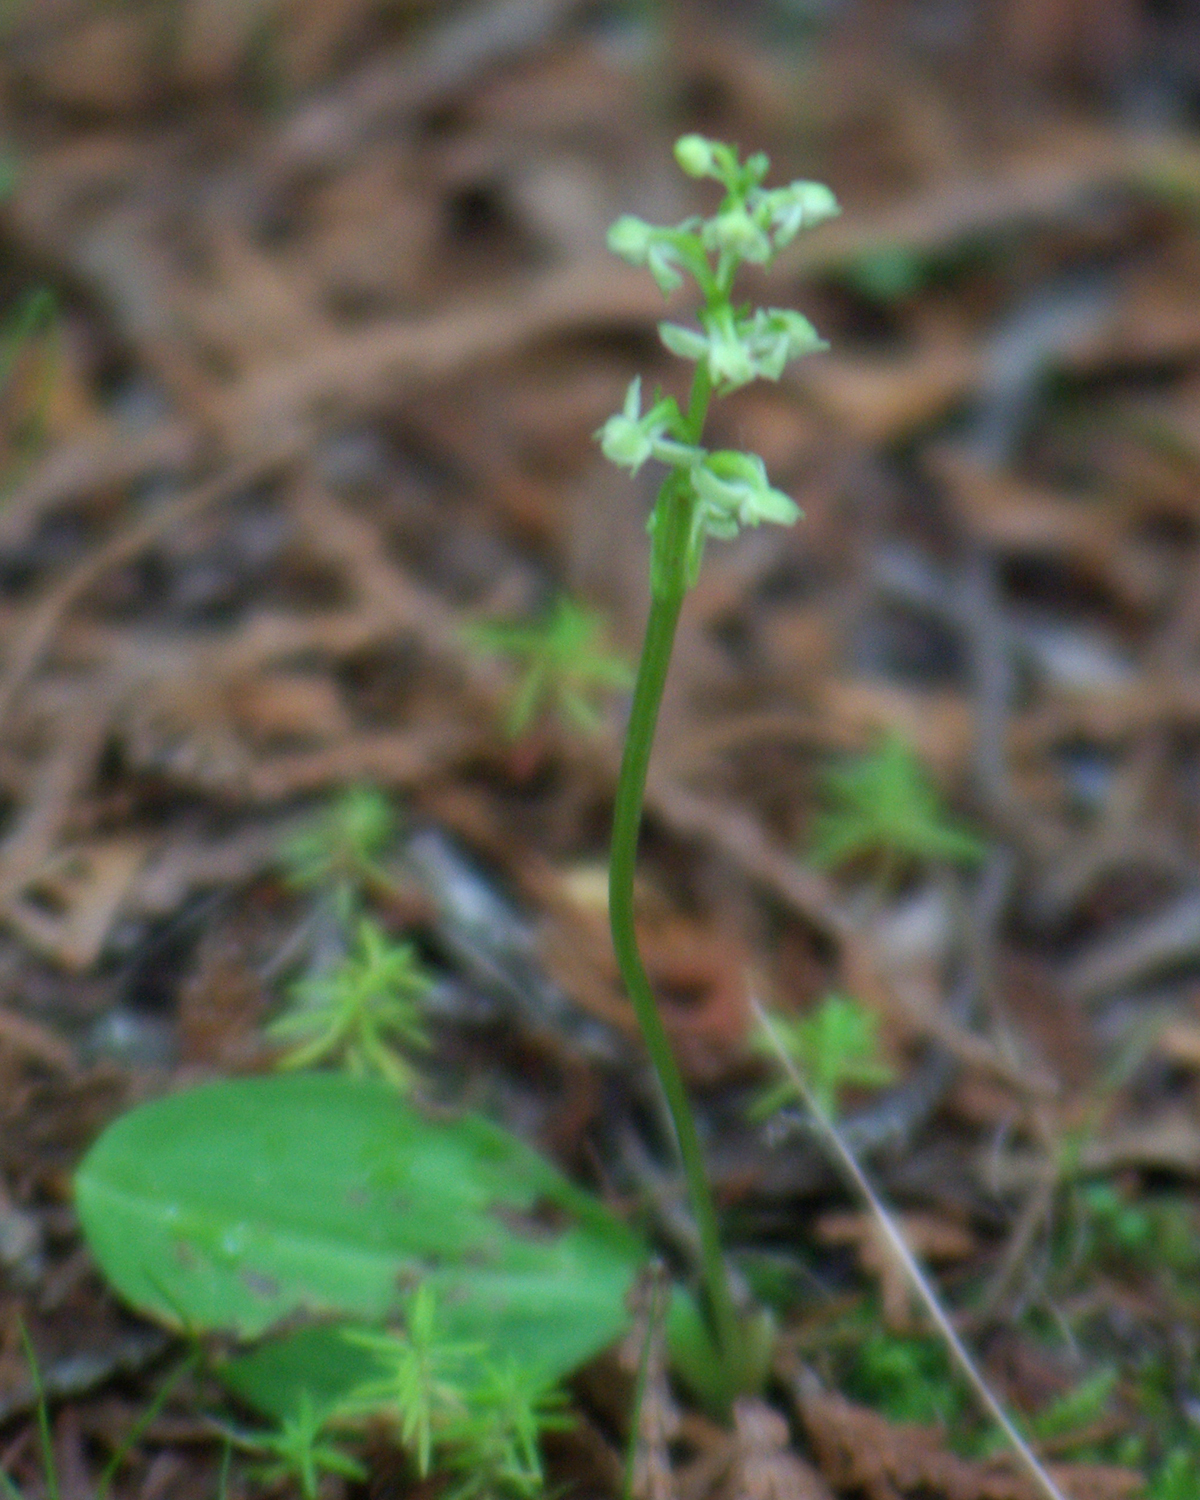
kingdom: Plantae
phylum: Tracheophyta
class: Liliopsida
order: Asparagales
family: Orchidaceae
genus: Platanthera
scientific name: Platanthera obtusata
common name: Blunt bog orchid
